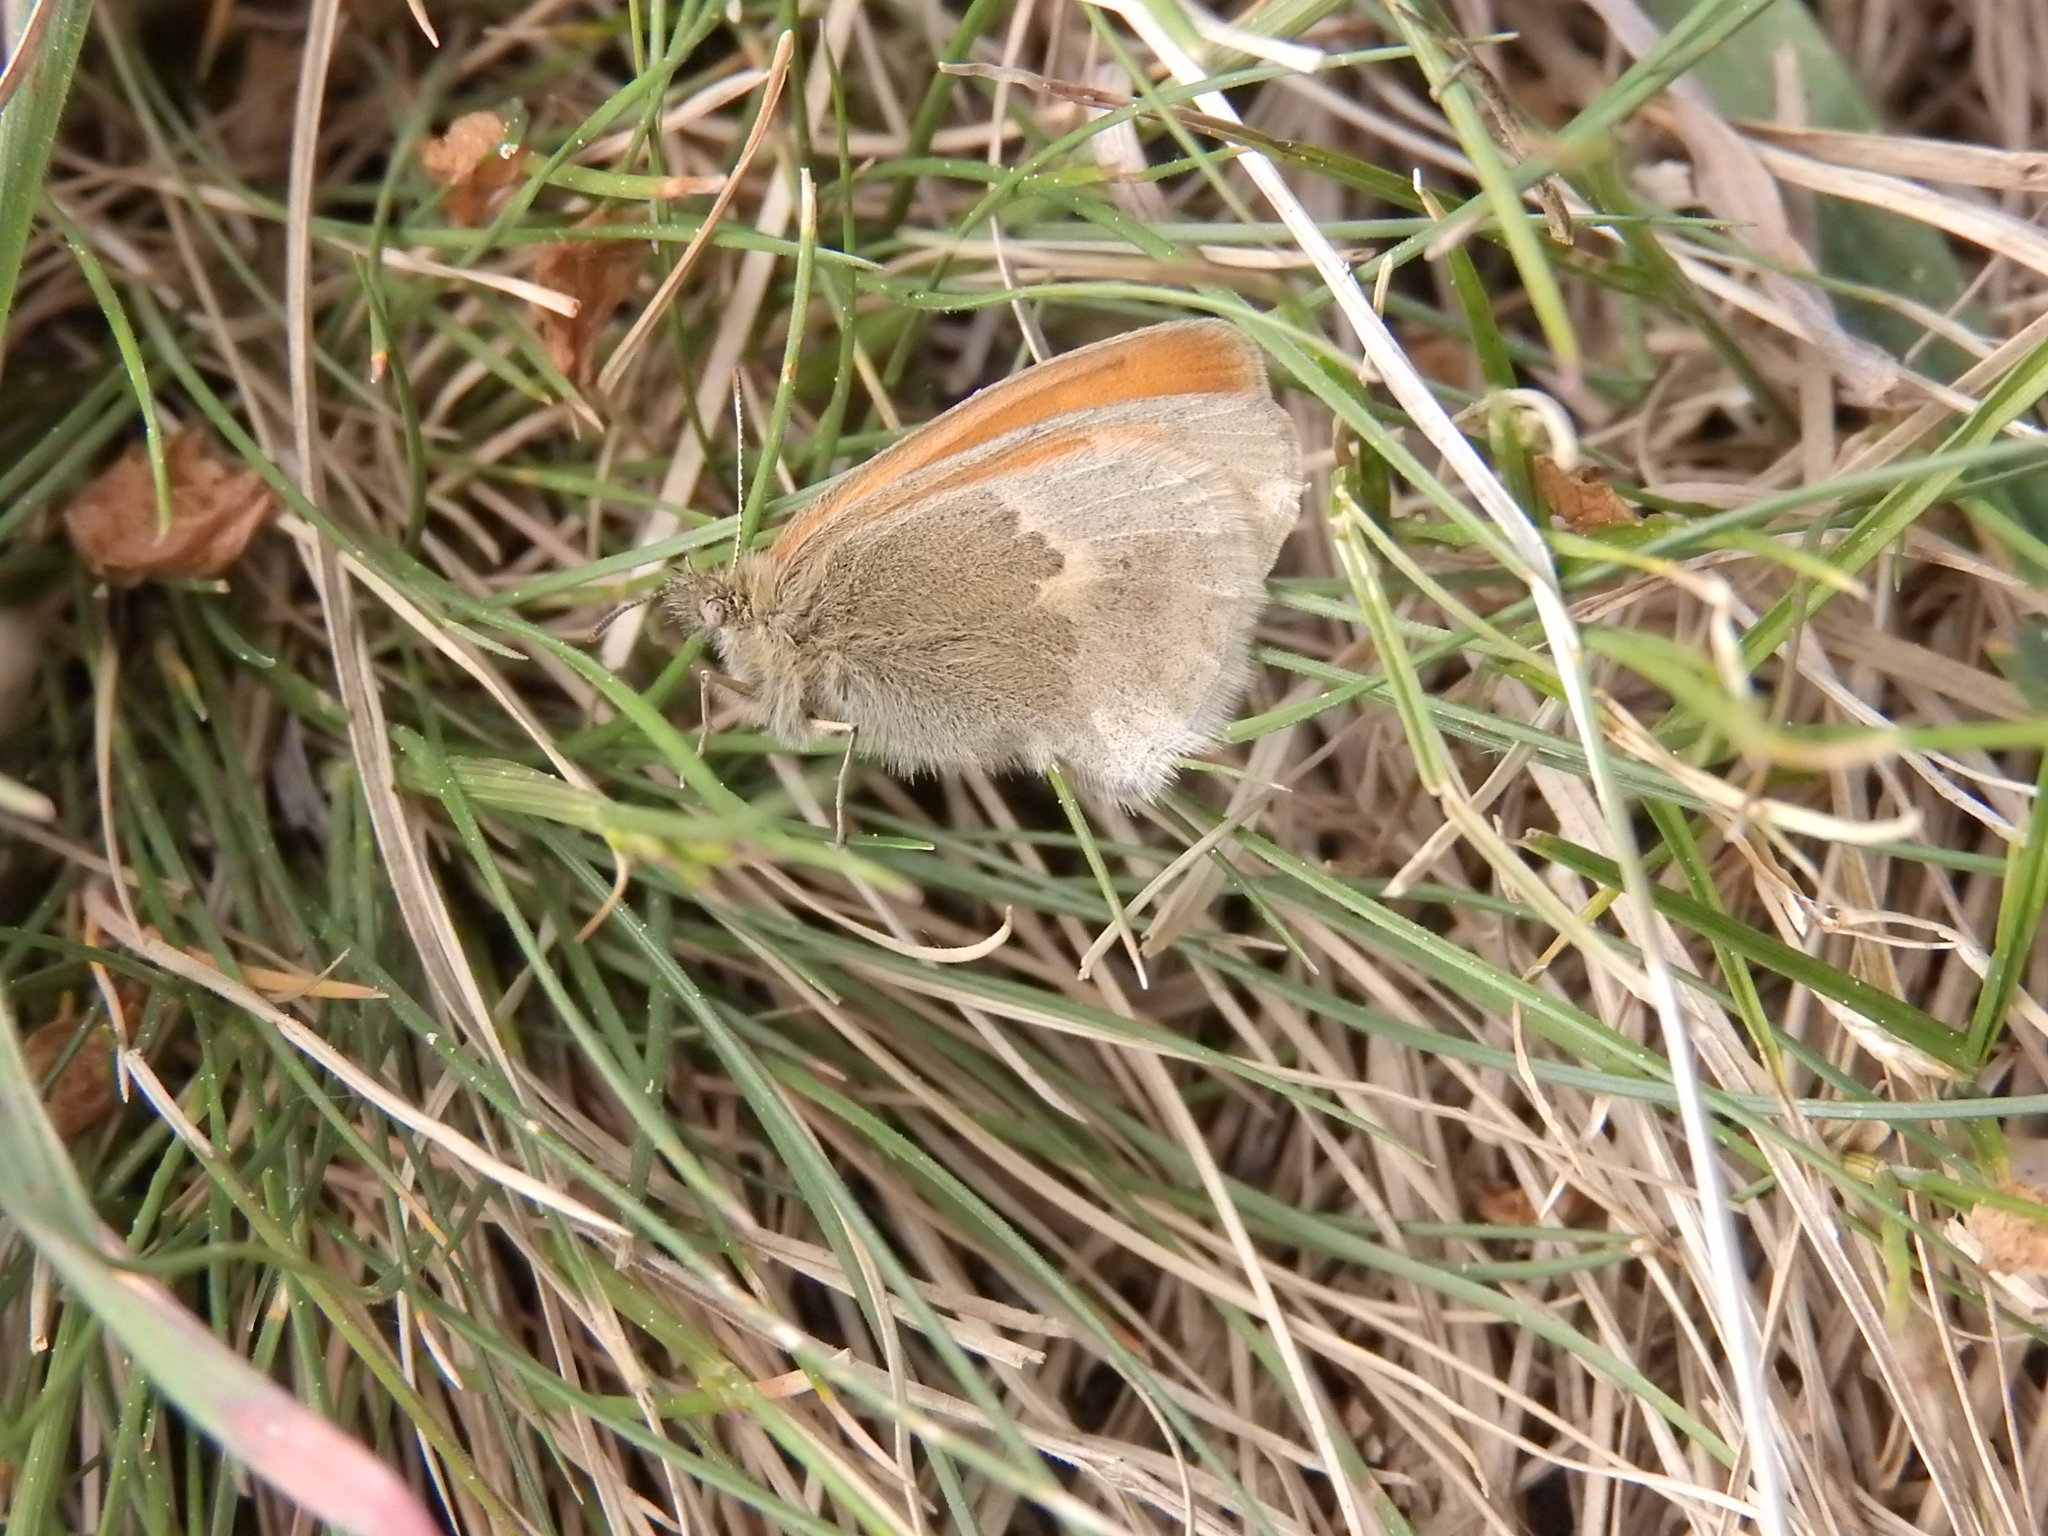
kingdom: Animalia
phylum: Arthropoda
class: Insecta
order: Lepidoptera
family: Nymphalidae
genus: Coenonympha
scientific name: Coenonympha pamphilus
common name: Small heath
